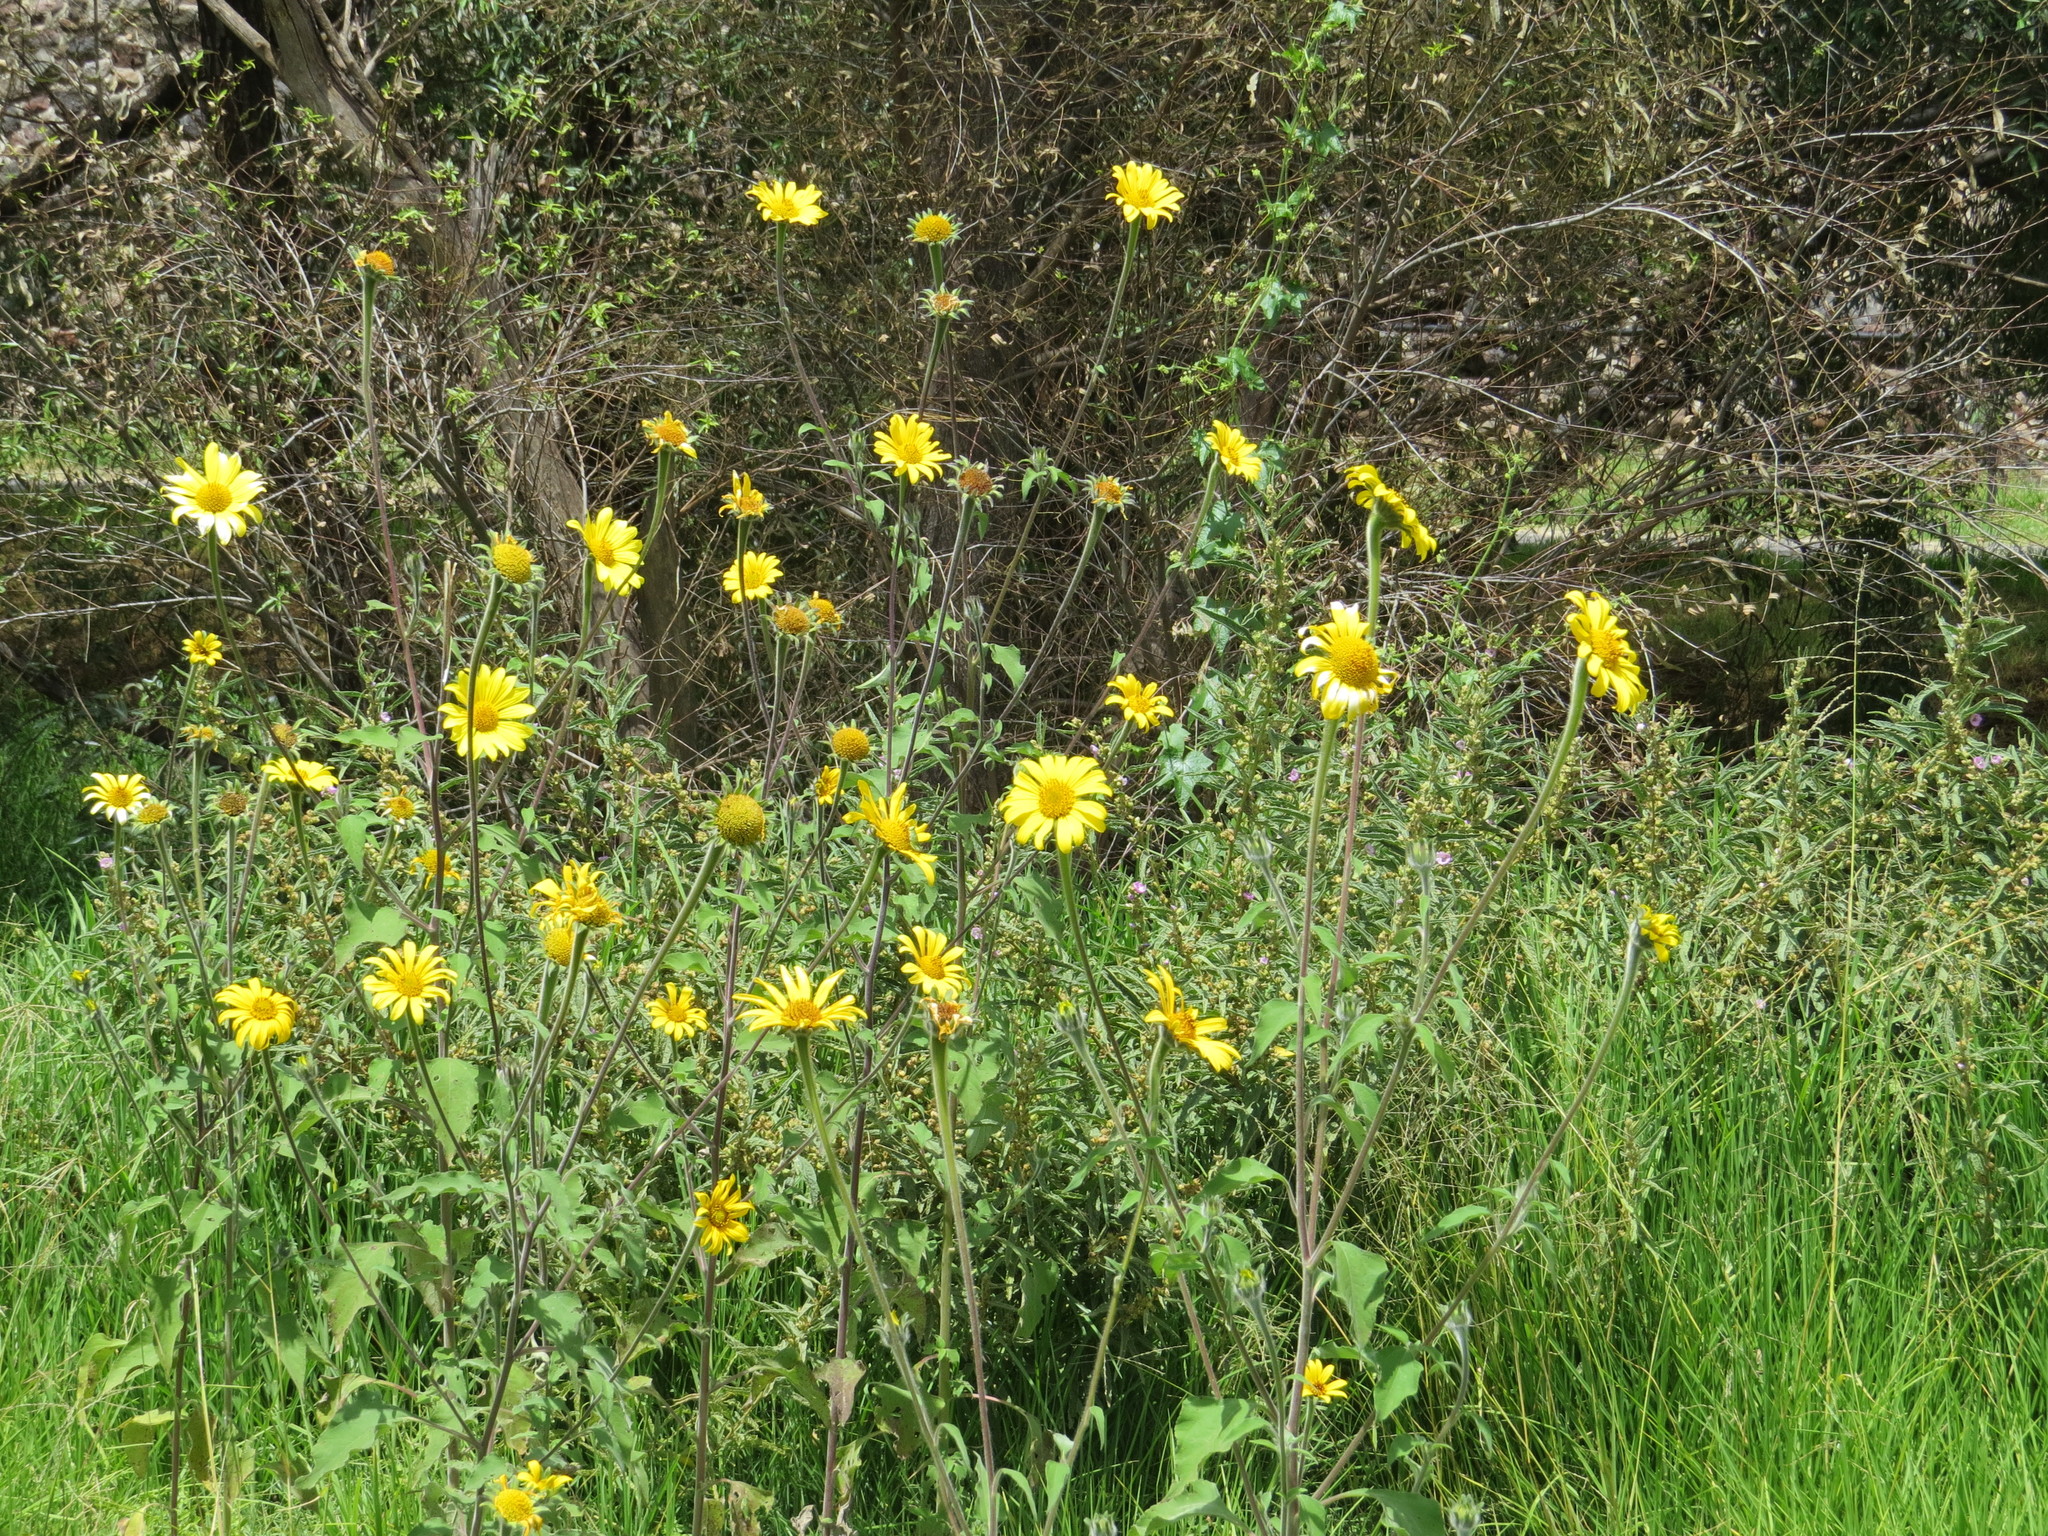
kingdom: Plantae
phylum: Tracheophyta
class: Magnoliopsida
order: Asterales
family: Asteraceae
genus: Tithonia
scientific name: Tithonia tubaeformis
